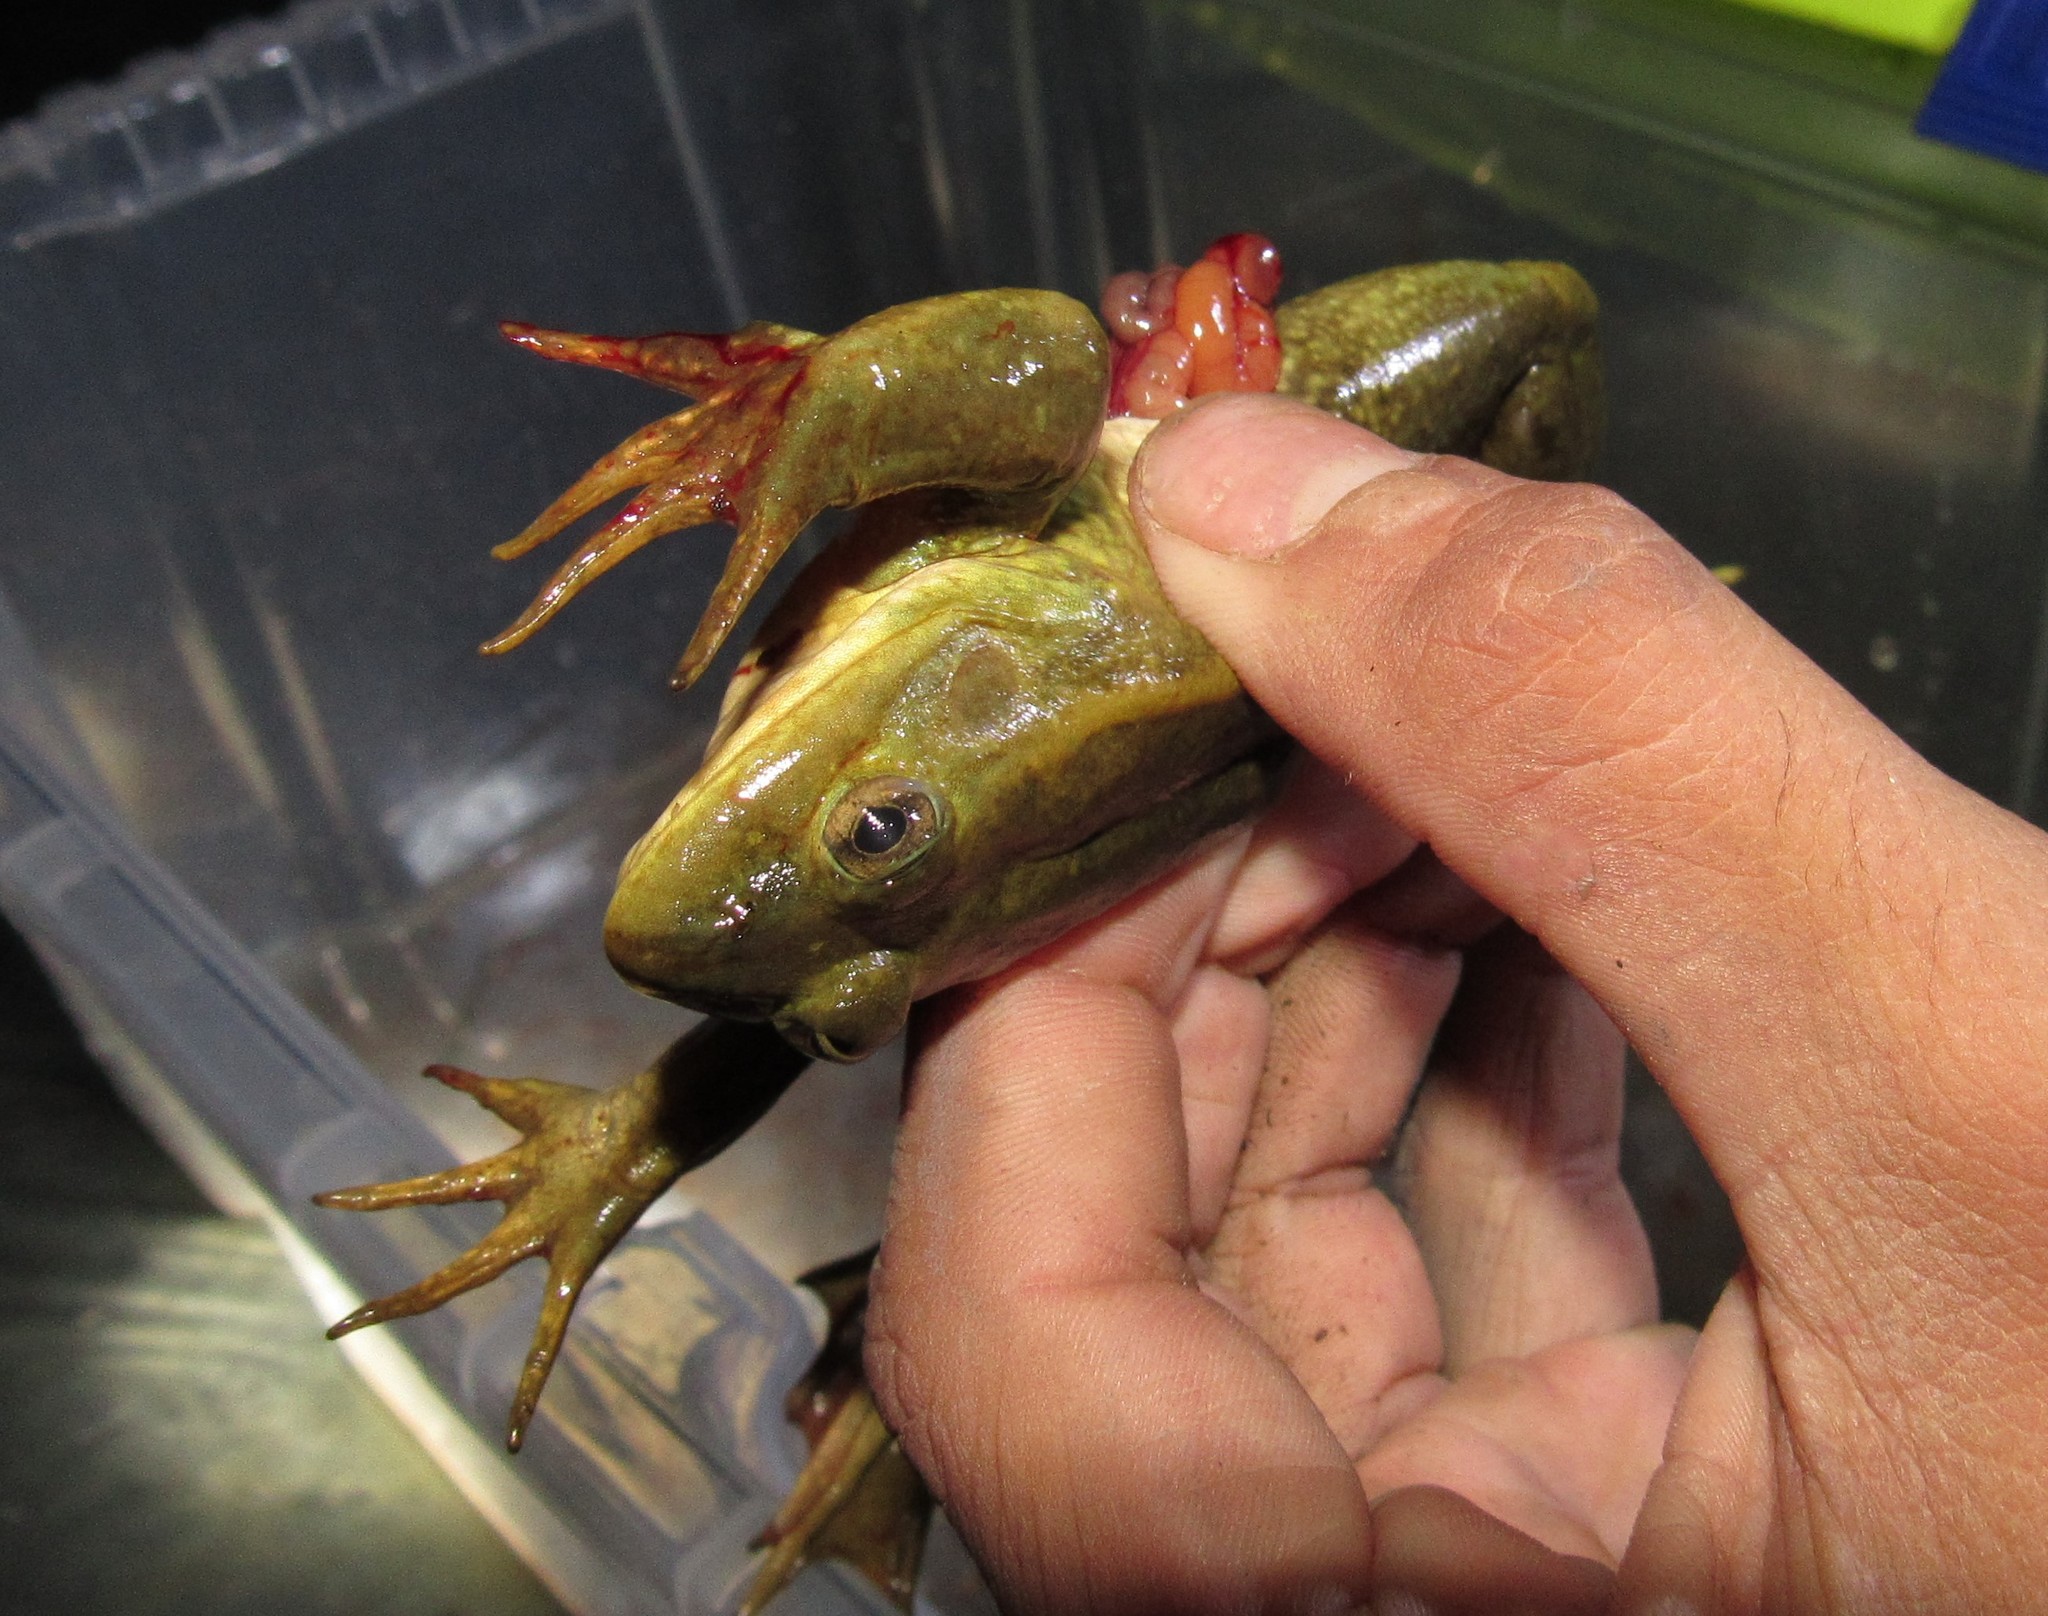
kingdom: Animalia
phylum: Chordata
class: Amphibia
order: Anura
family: Ranidae
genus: Lithobates
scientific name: Lithobates megapoda
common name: Big-footed leopard frog
